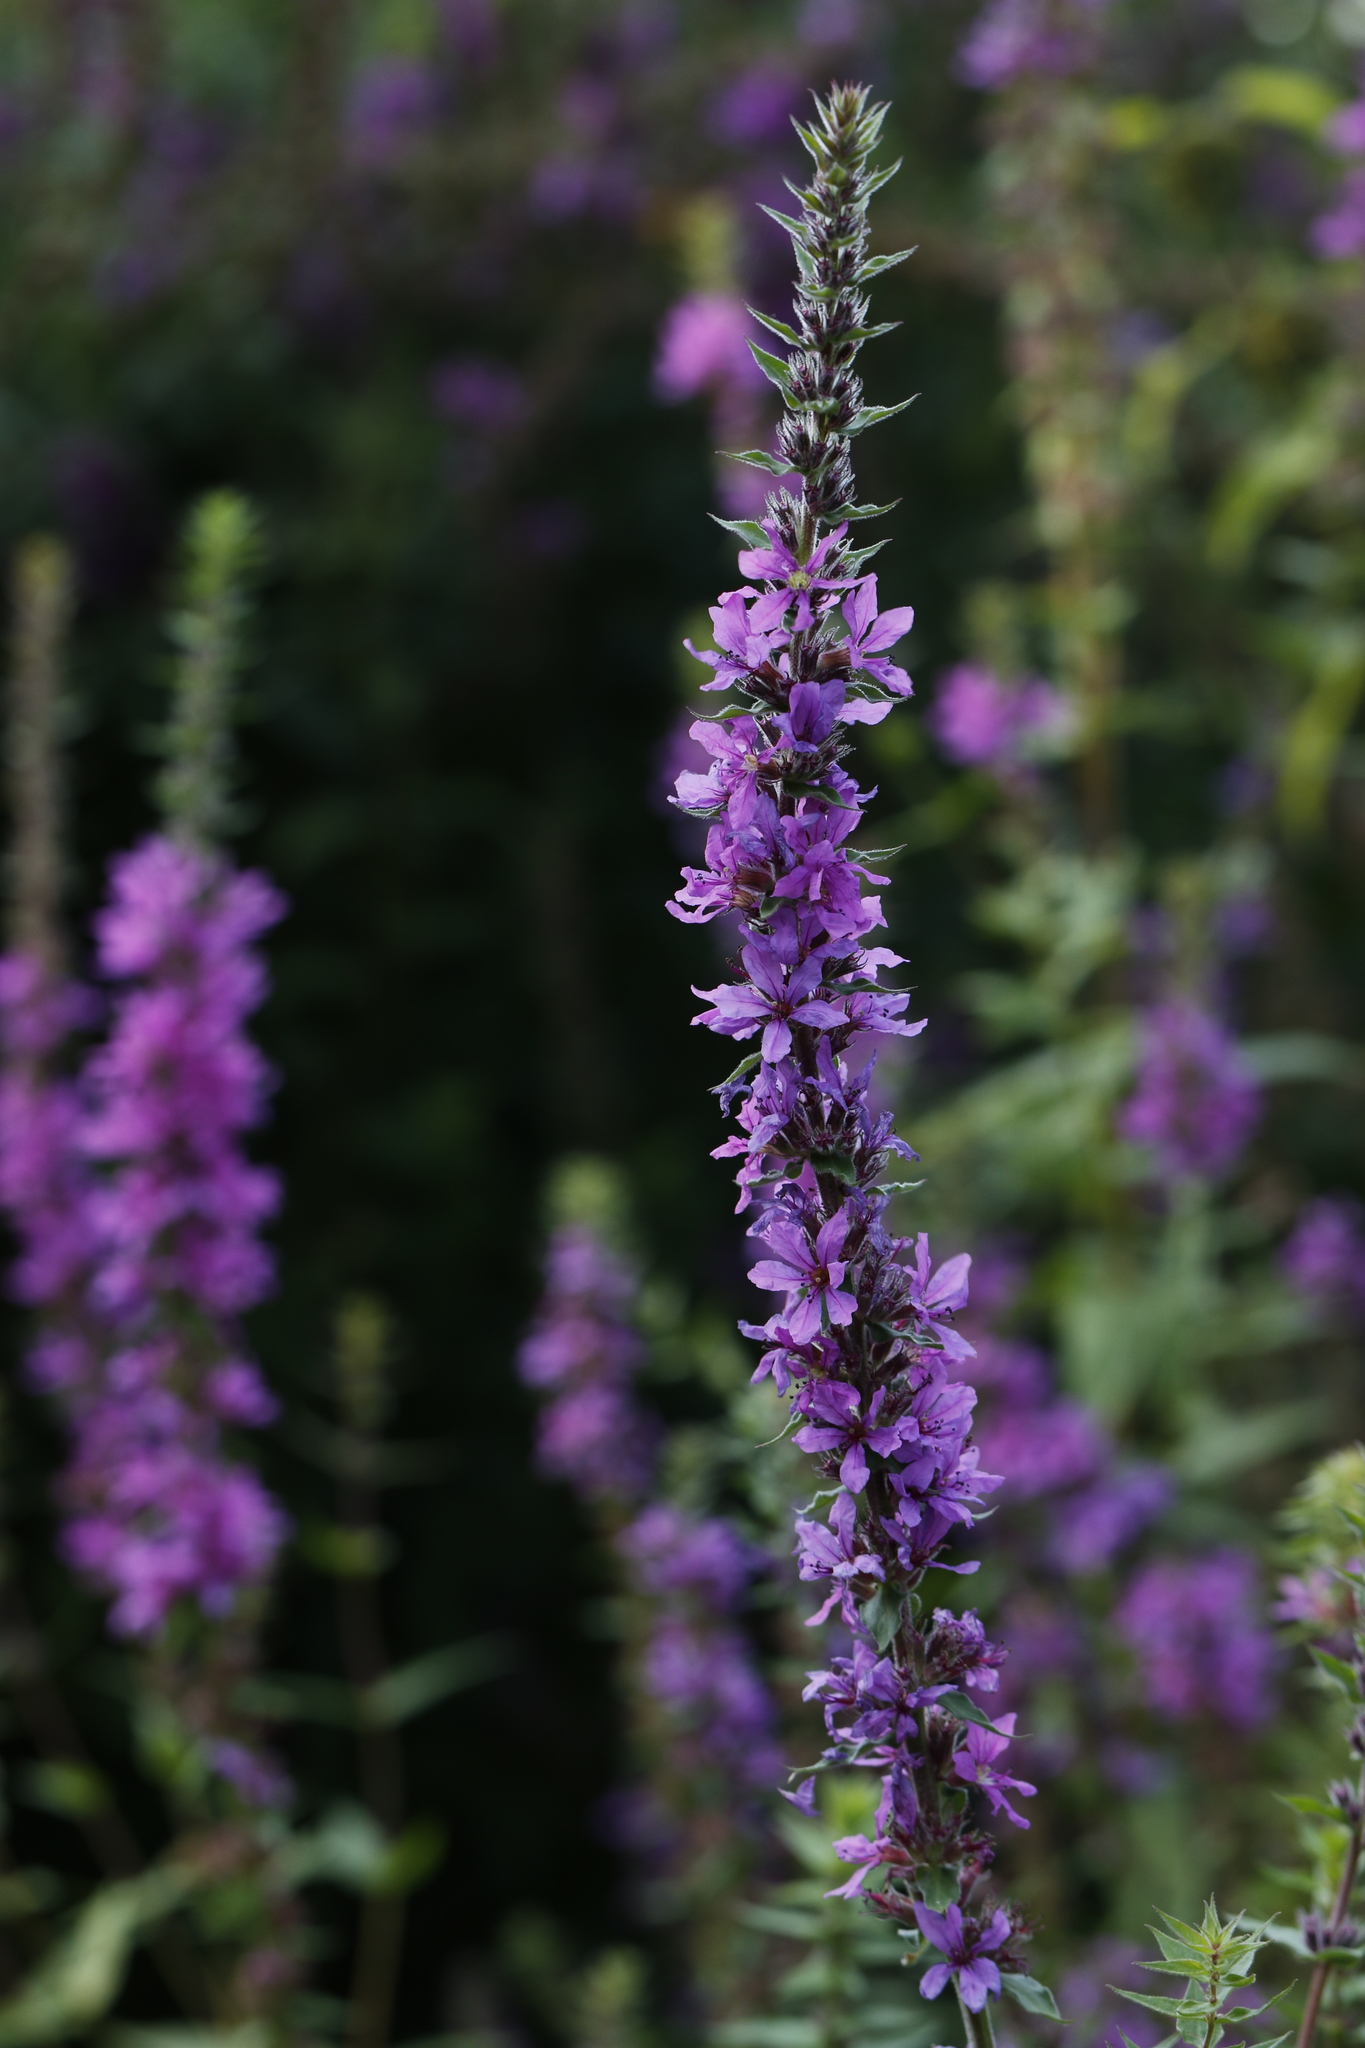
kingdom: Plantae
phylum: Tracheophyta
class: Magnoliopsida
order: Myrtales
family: Lythraceae
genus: Lythrum
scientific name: Lythrum salicaria
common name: Purple loosestrife
